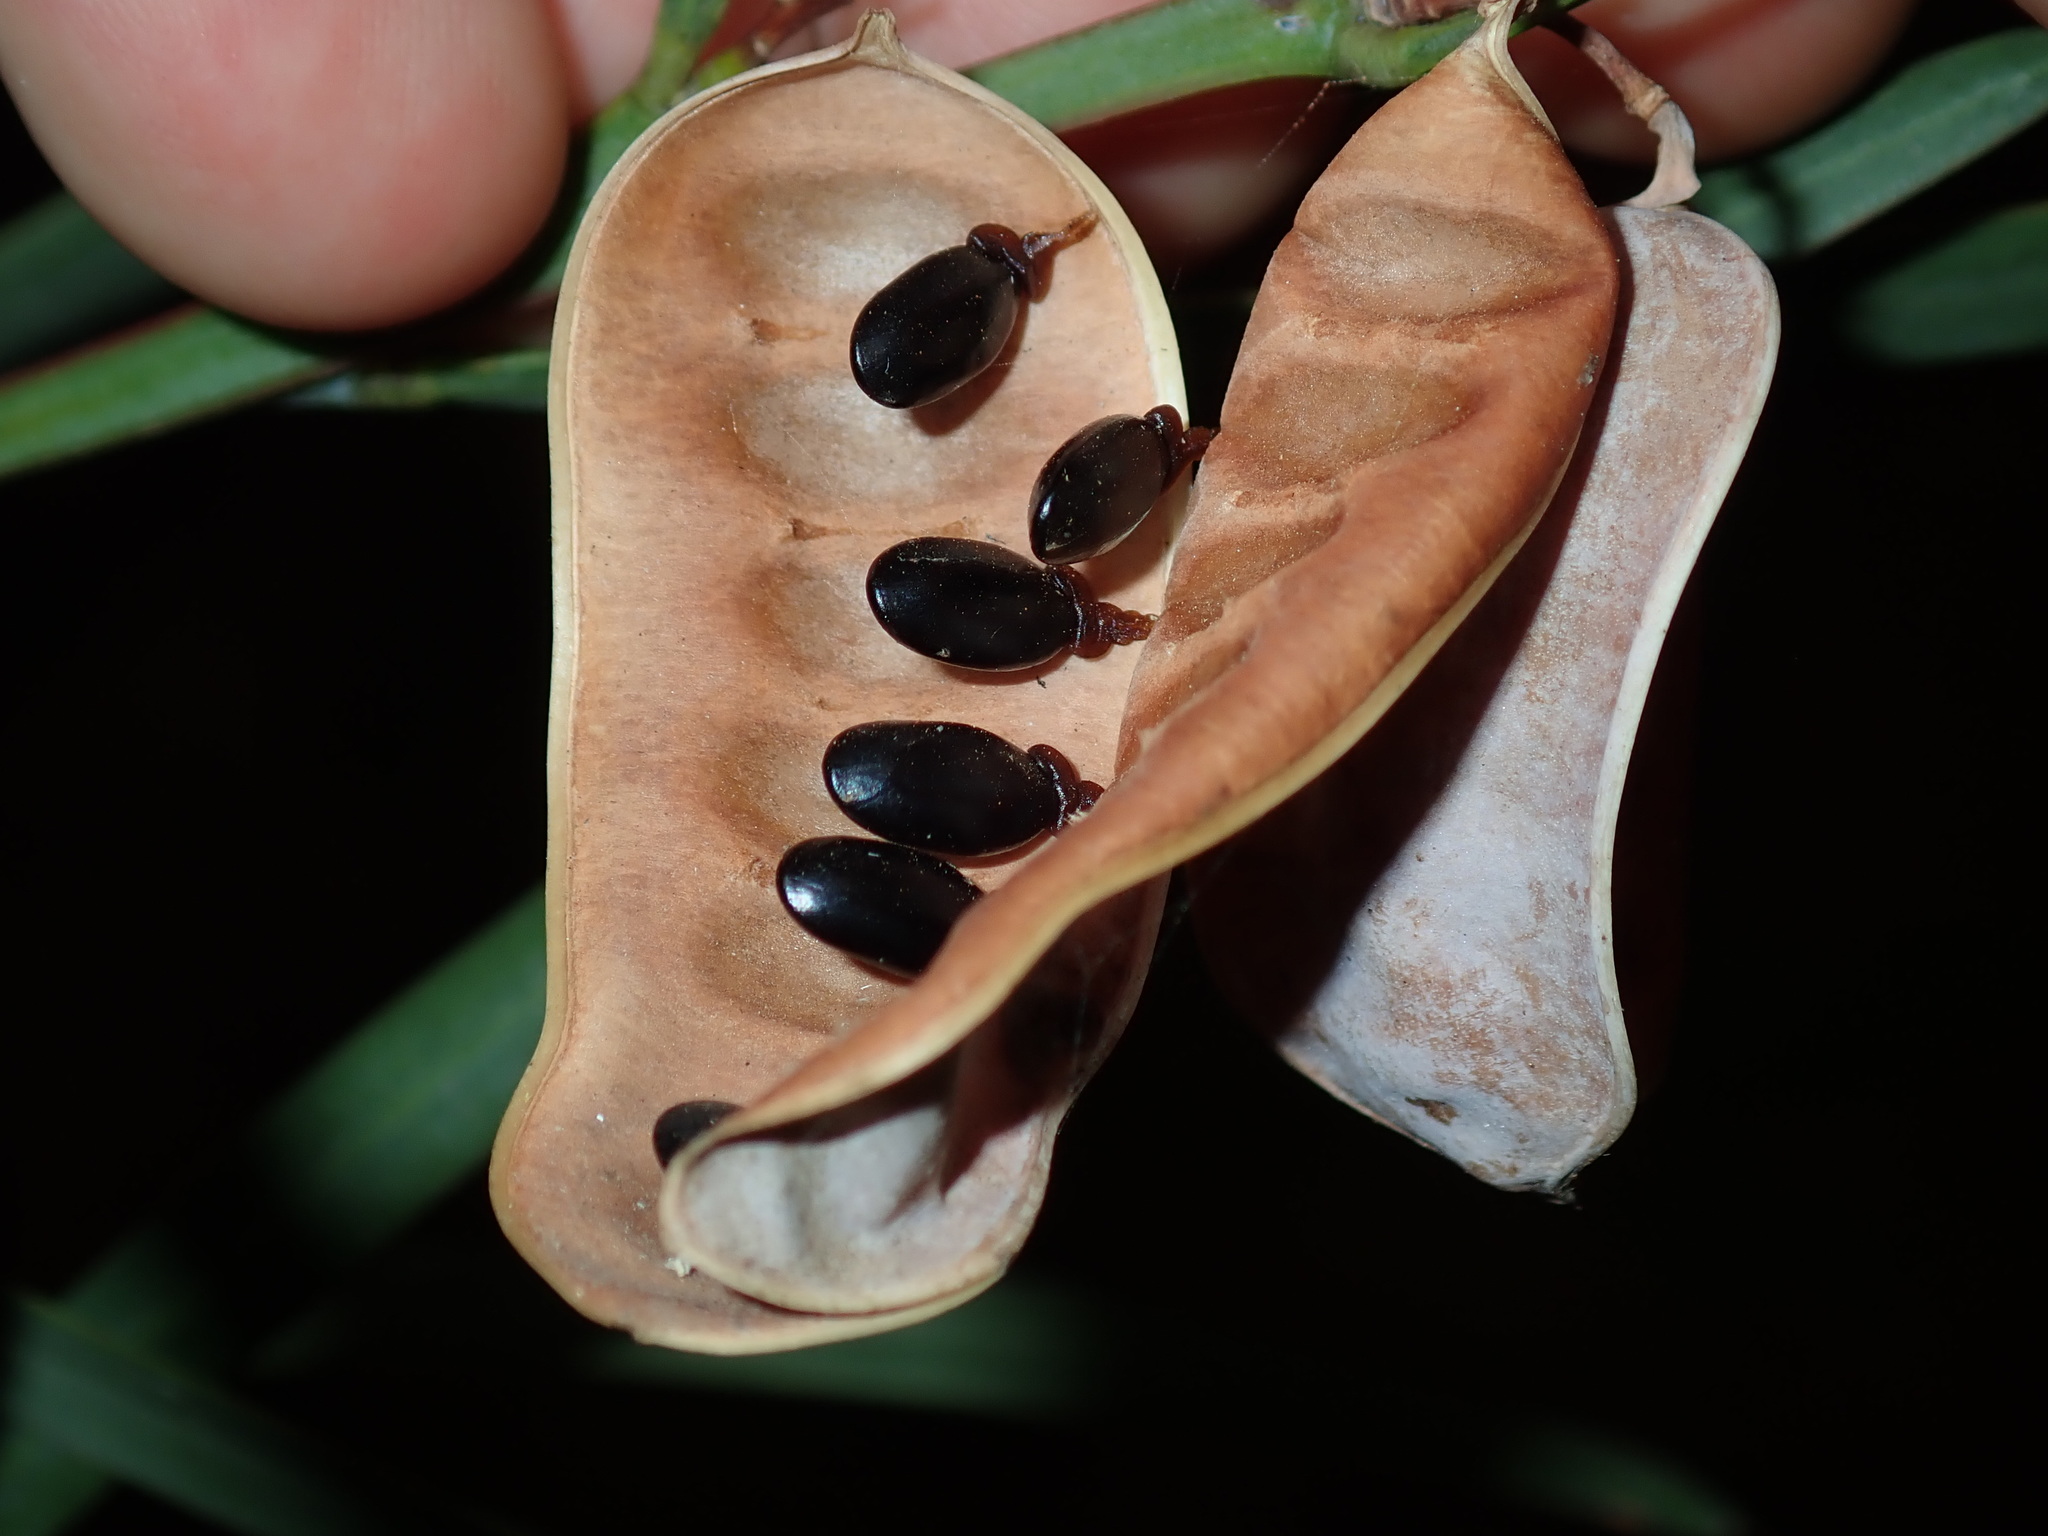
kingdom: Plantae
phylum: Tracheophyta
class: Magnoliopsida
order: Fabales
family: Fabaceae
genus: Acacia
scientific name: Acacia suaveolens
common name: Sweet acacia
